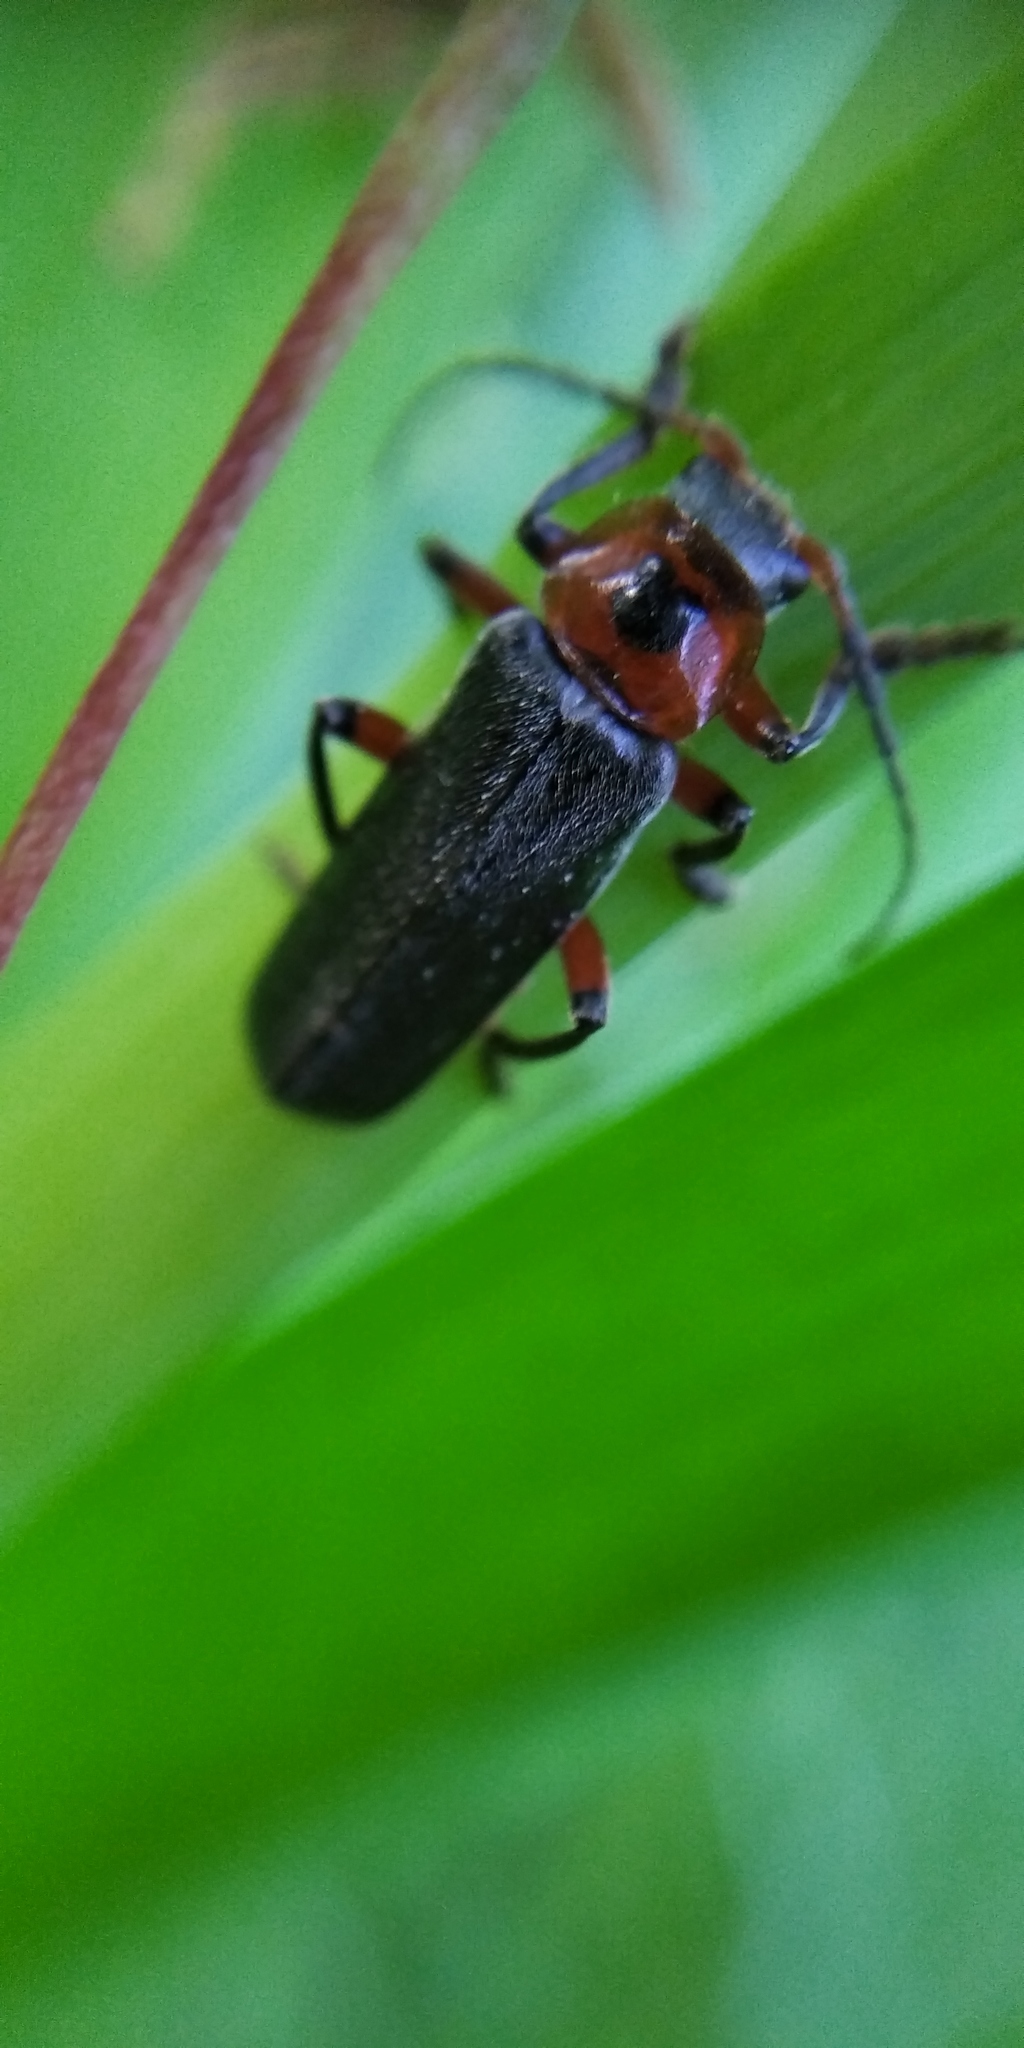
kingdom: Animalia
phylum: Arthropoda
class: Insecta
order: Coleoptera
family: Cantharidae
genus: Cantharis
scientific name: Cantharis rustica
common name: Soldier beetle
